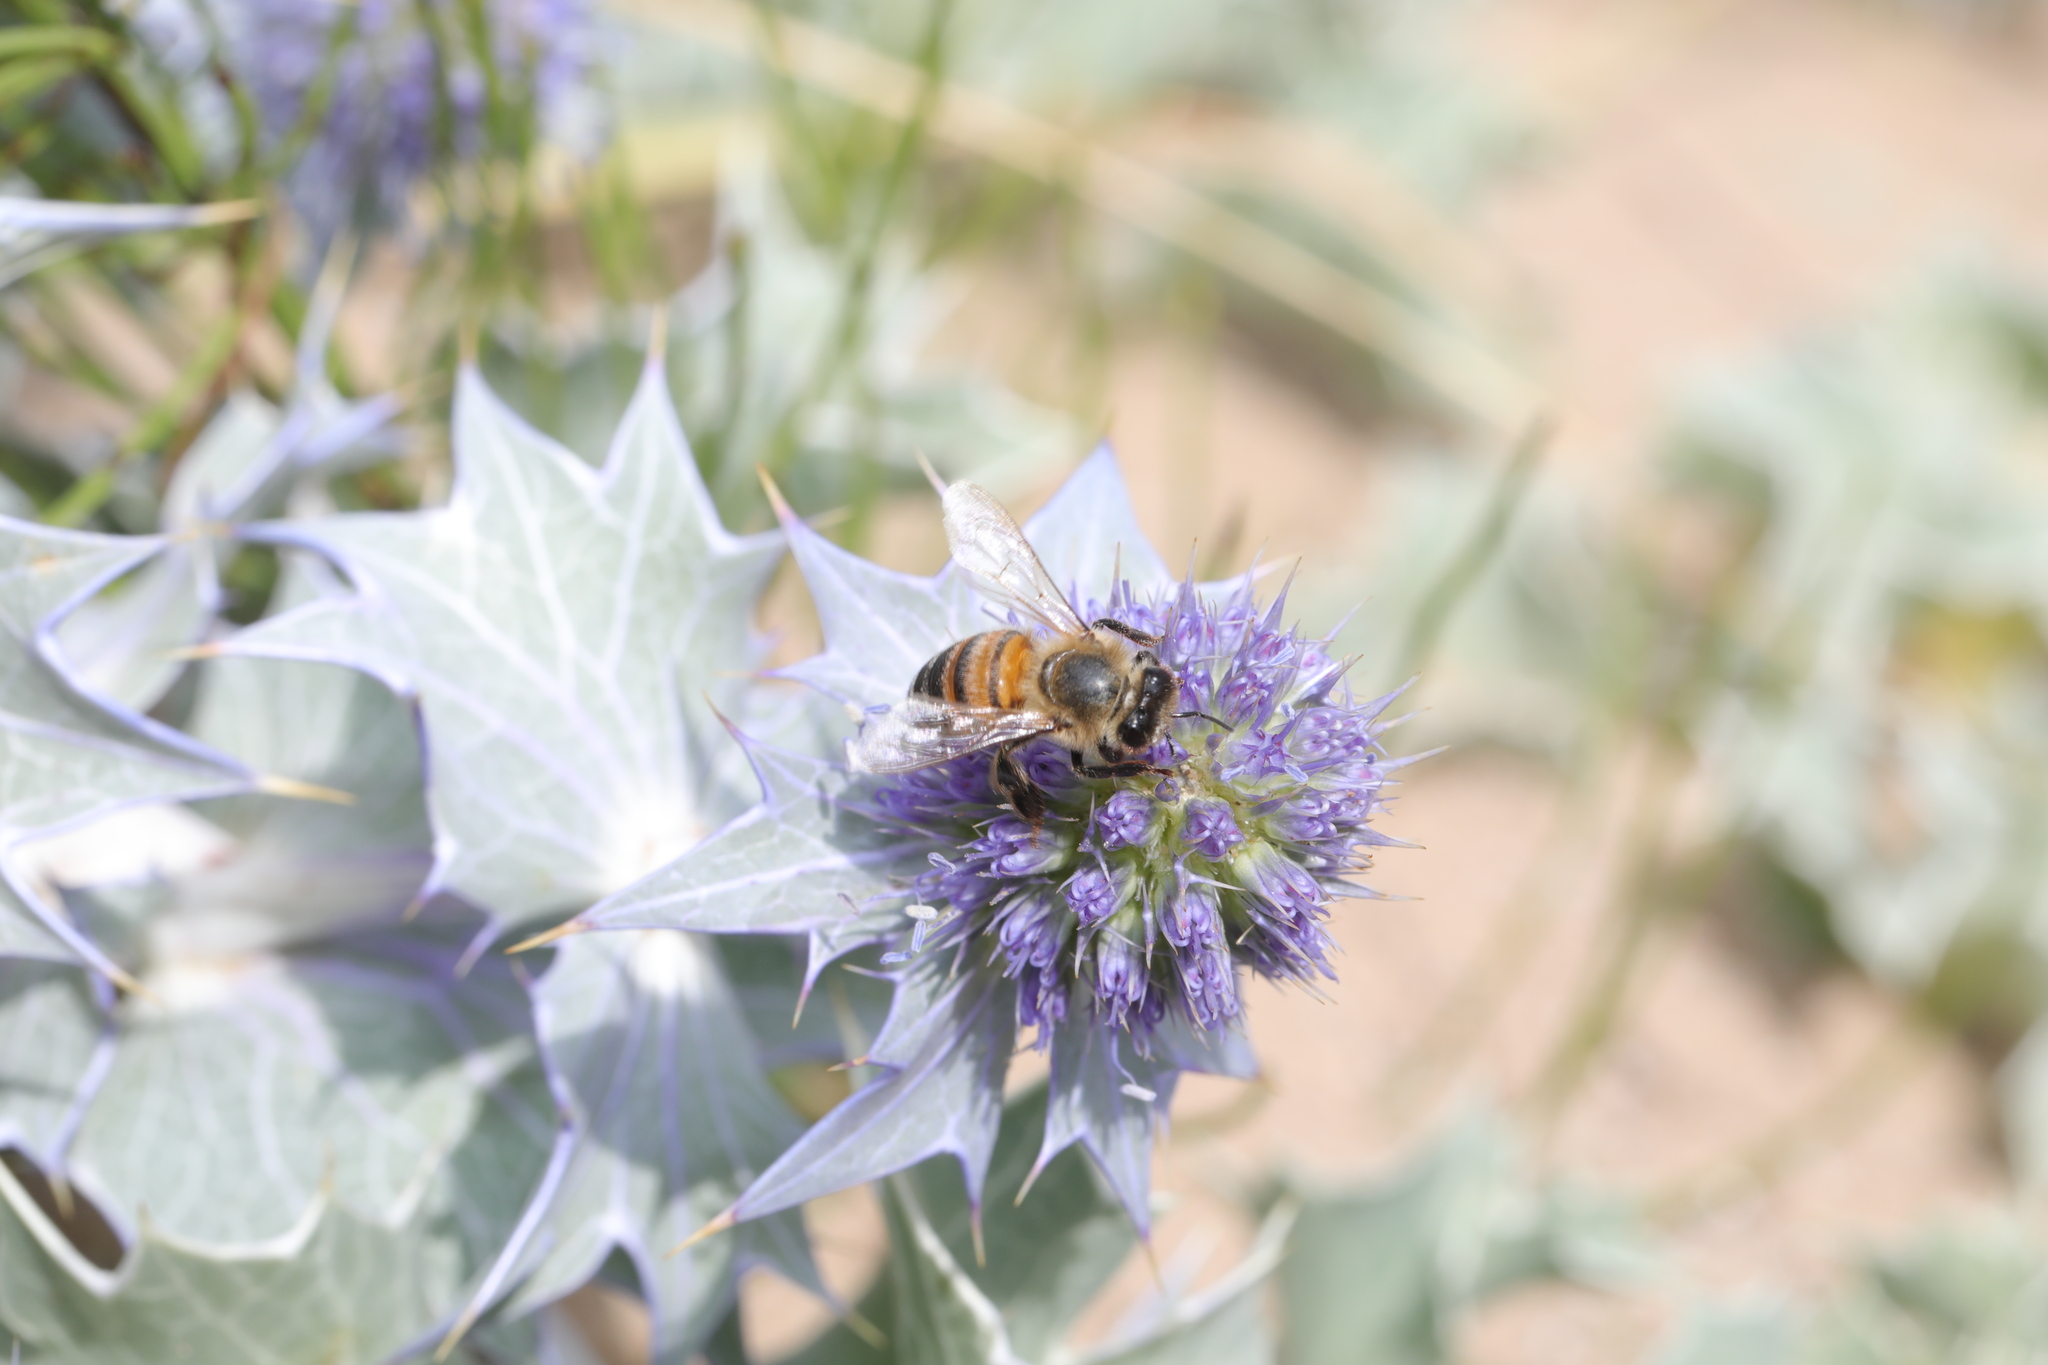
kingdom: Animalia
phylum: Arthropoda
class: Insecta
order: Hymenoptera
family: Apidae
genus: Apis
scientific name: Apis mellifera
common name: Honey bee
